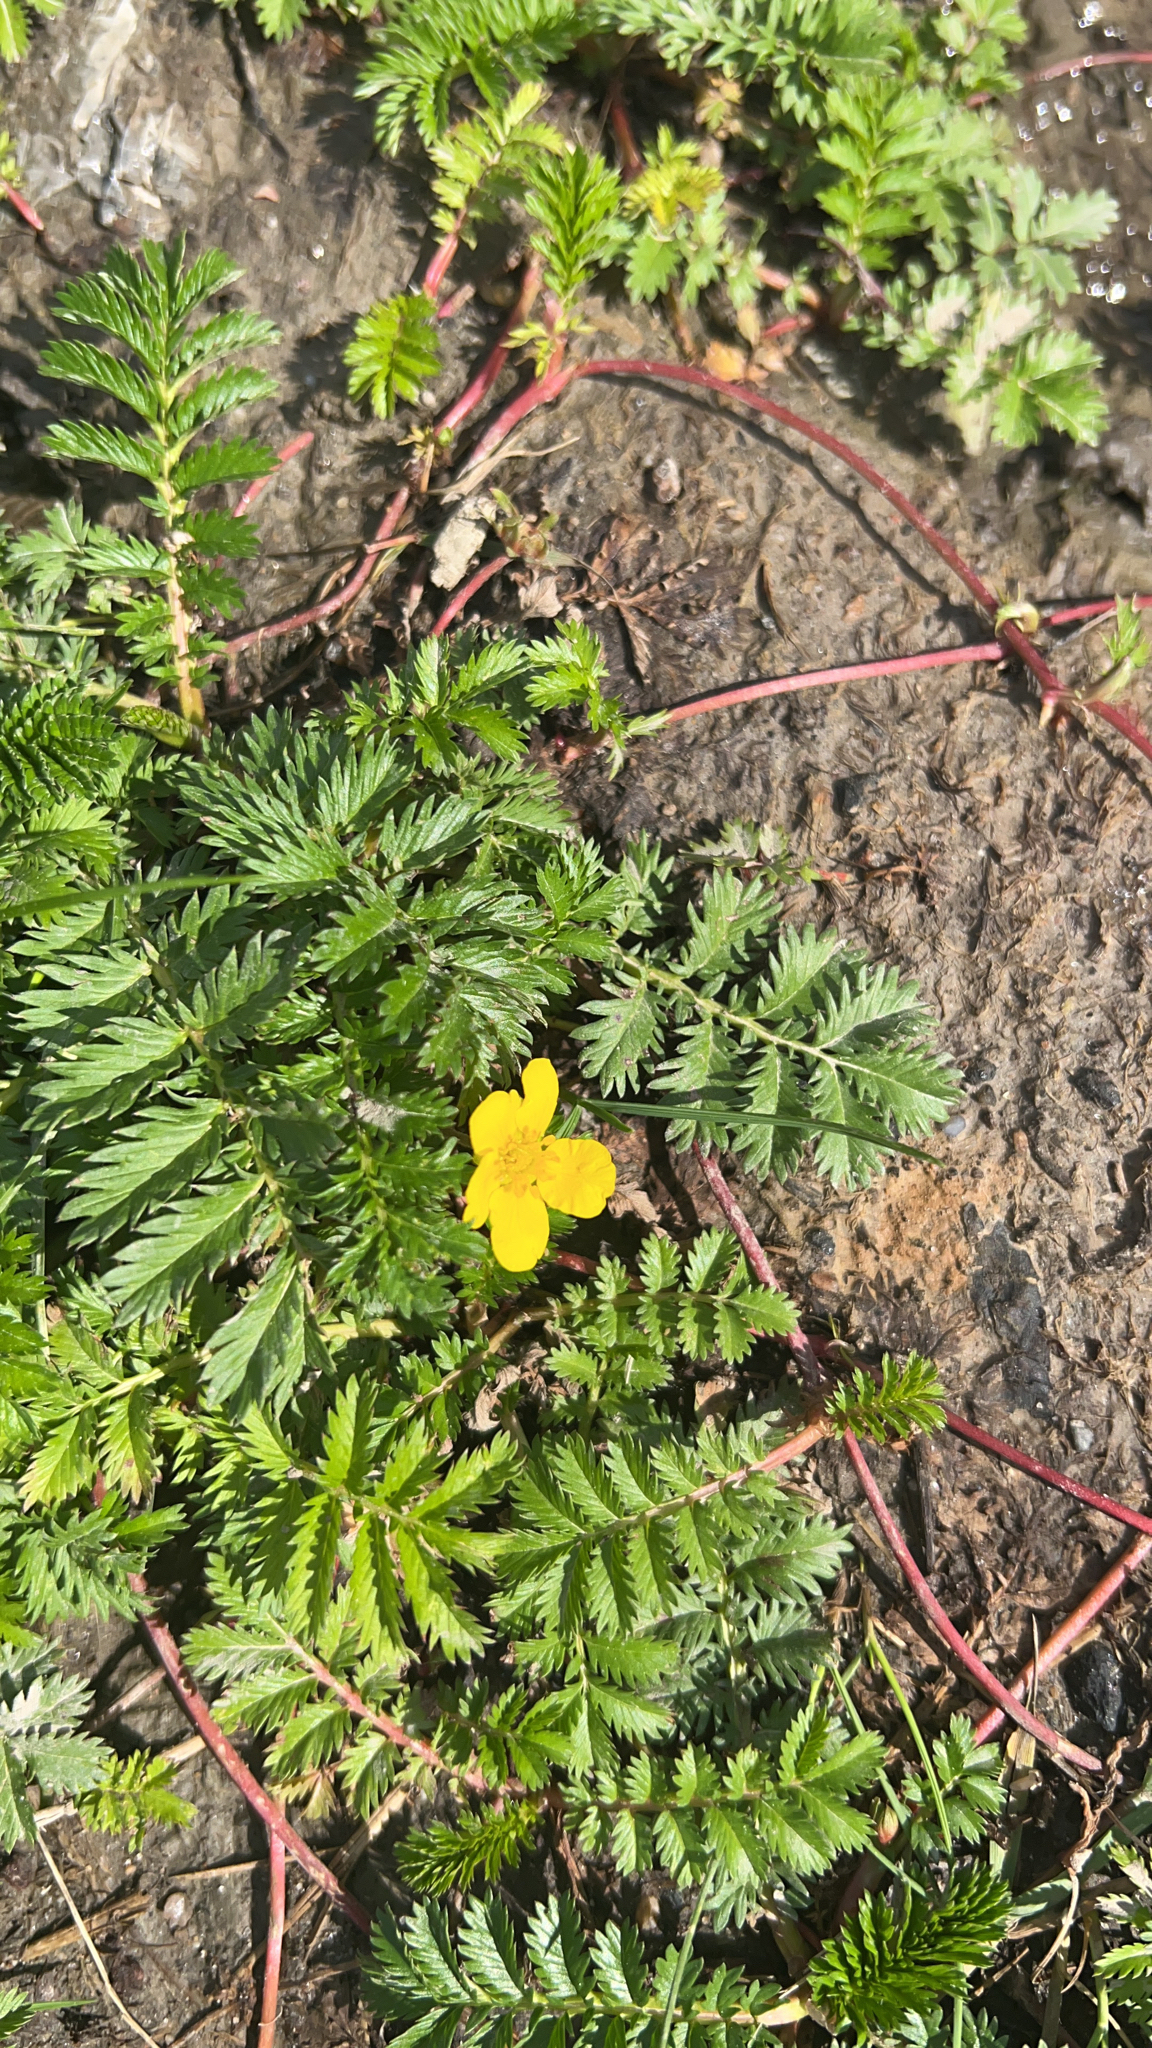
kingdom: Plantae
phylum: Tracheophyta
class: Magnoliopsida
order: Rosales
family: Rosaceae
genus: Argentina
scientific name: Argentina anserina
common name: Common silverweed
